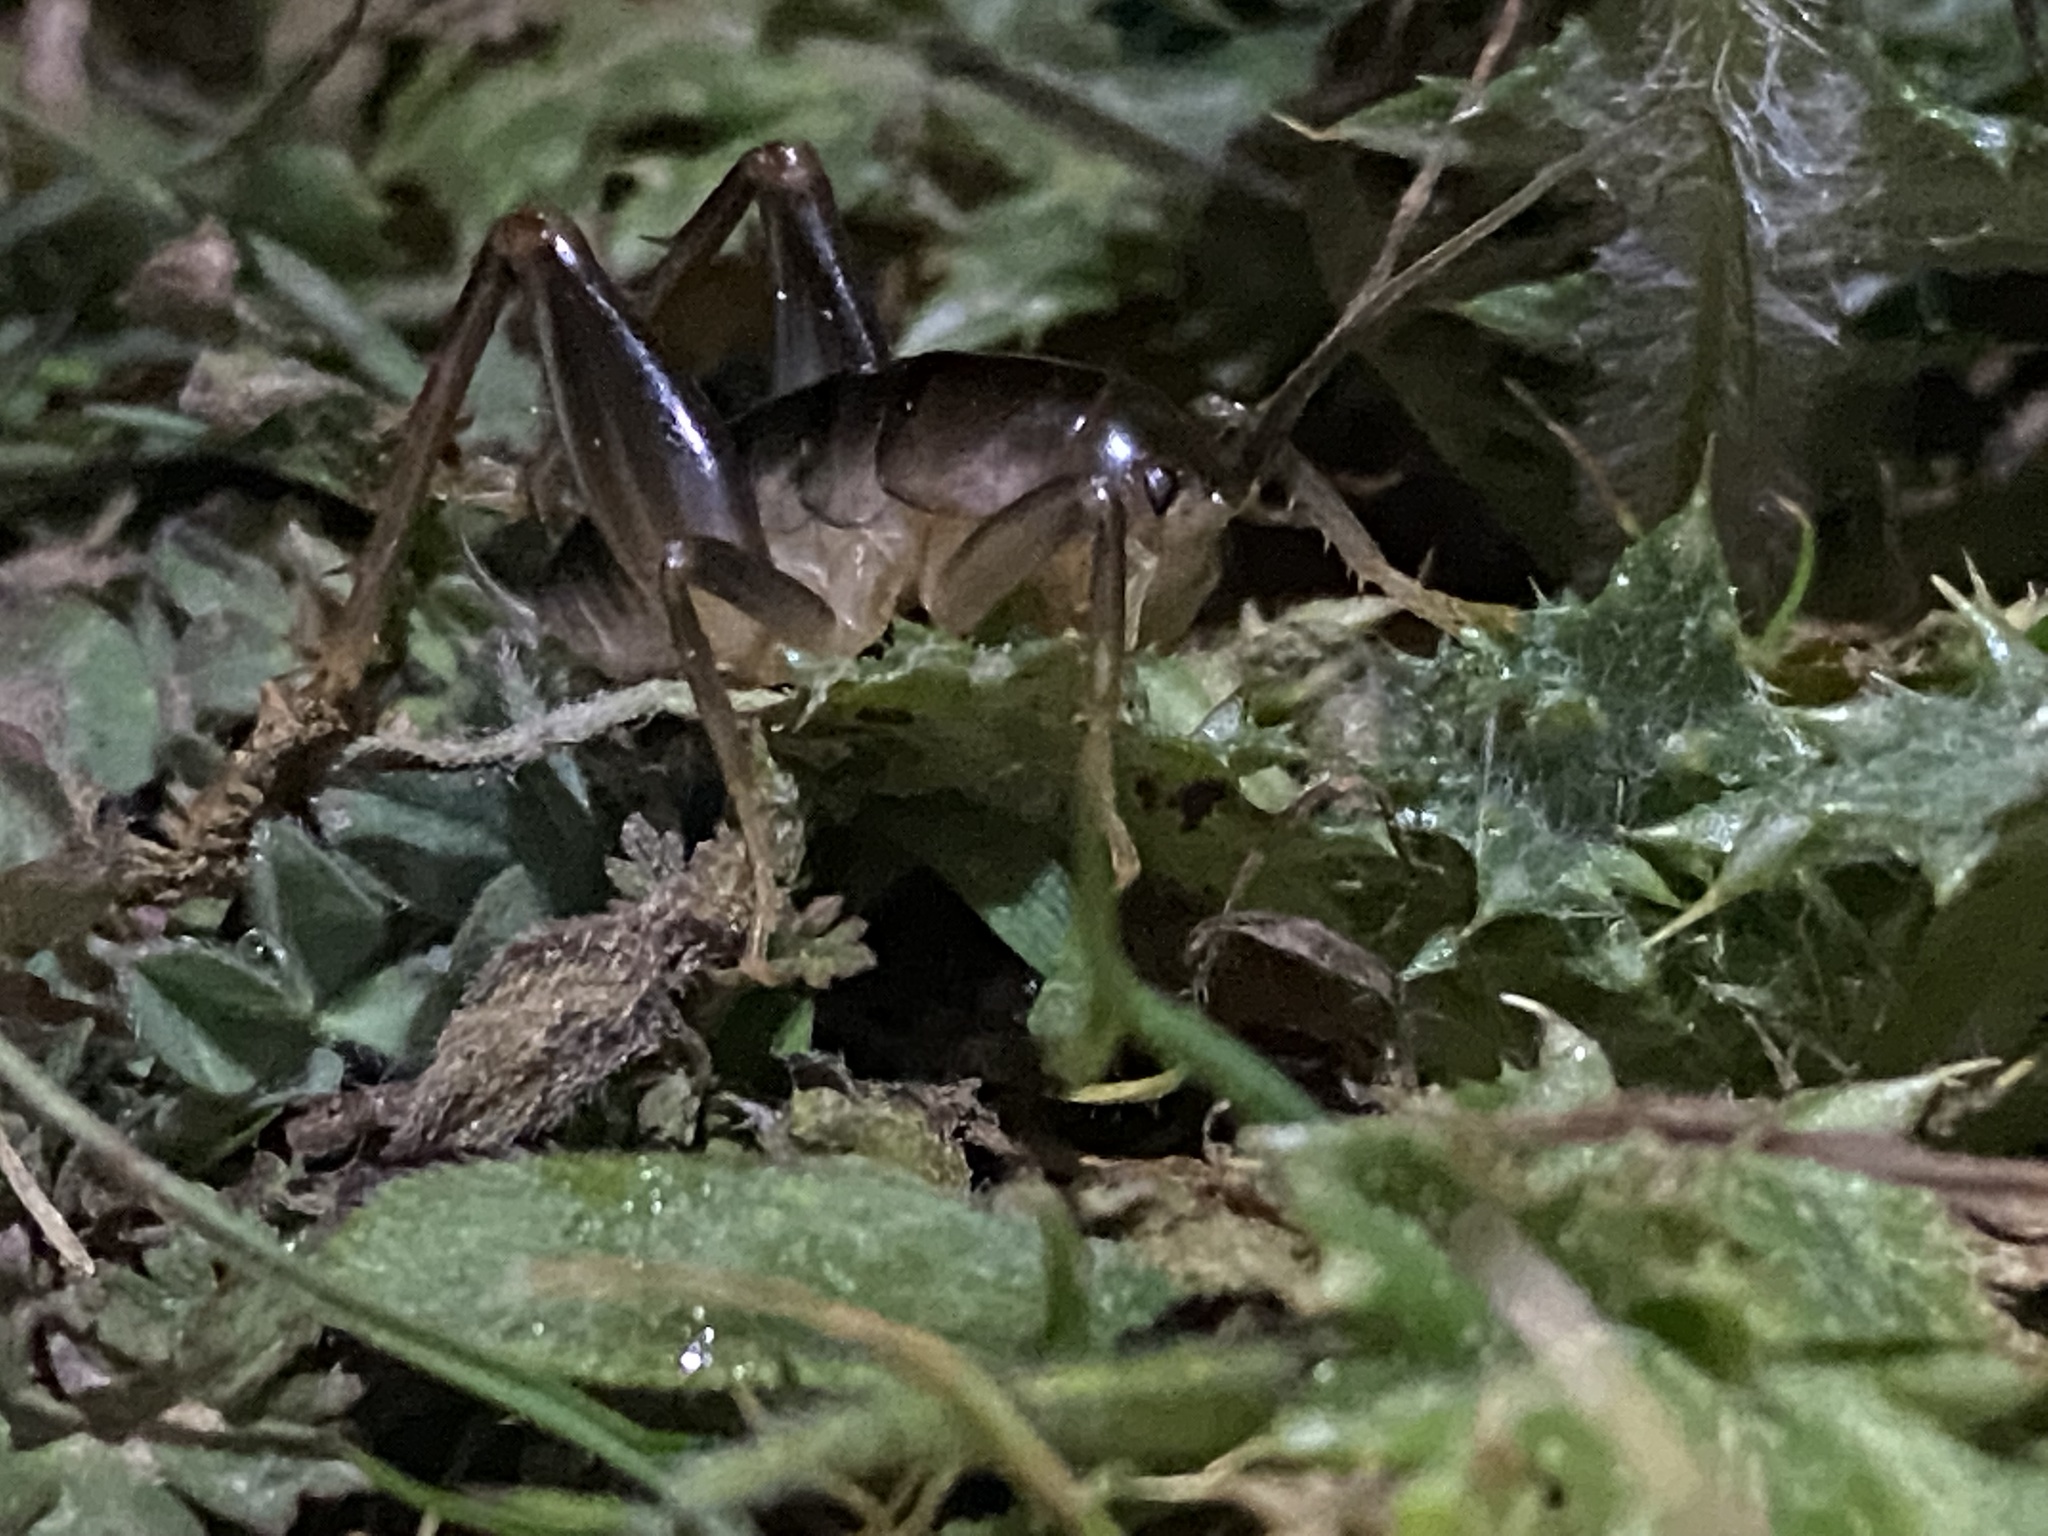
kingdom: Animalia
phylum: Arthropoda
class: Insecta
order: Orthoptera
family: Rhaphidophoridae
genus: Ceuthophilus
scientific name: Ceuthophilus californianus
